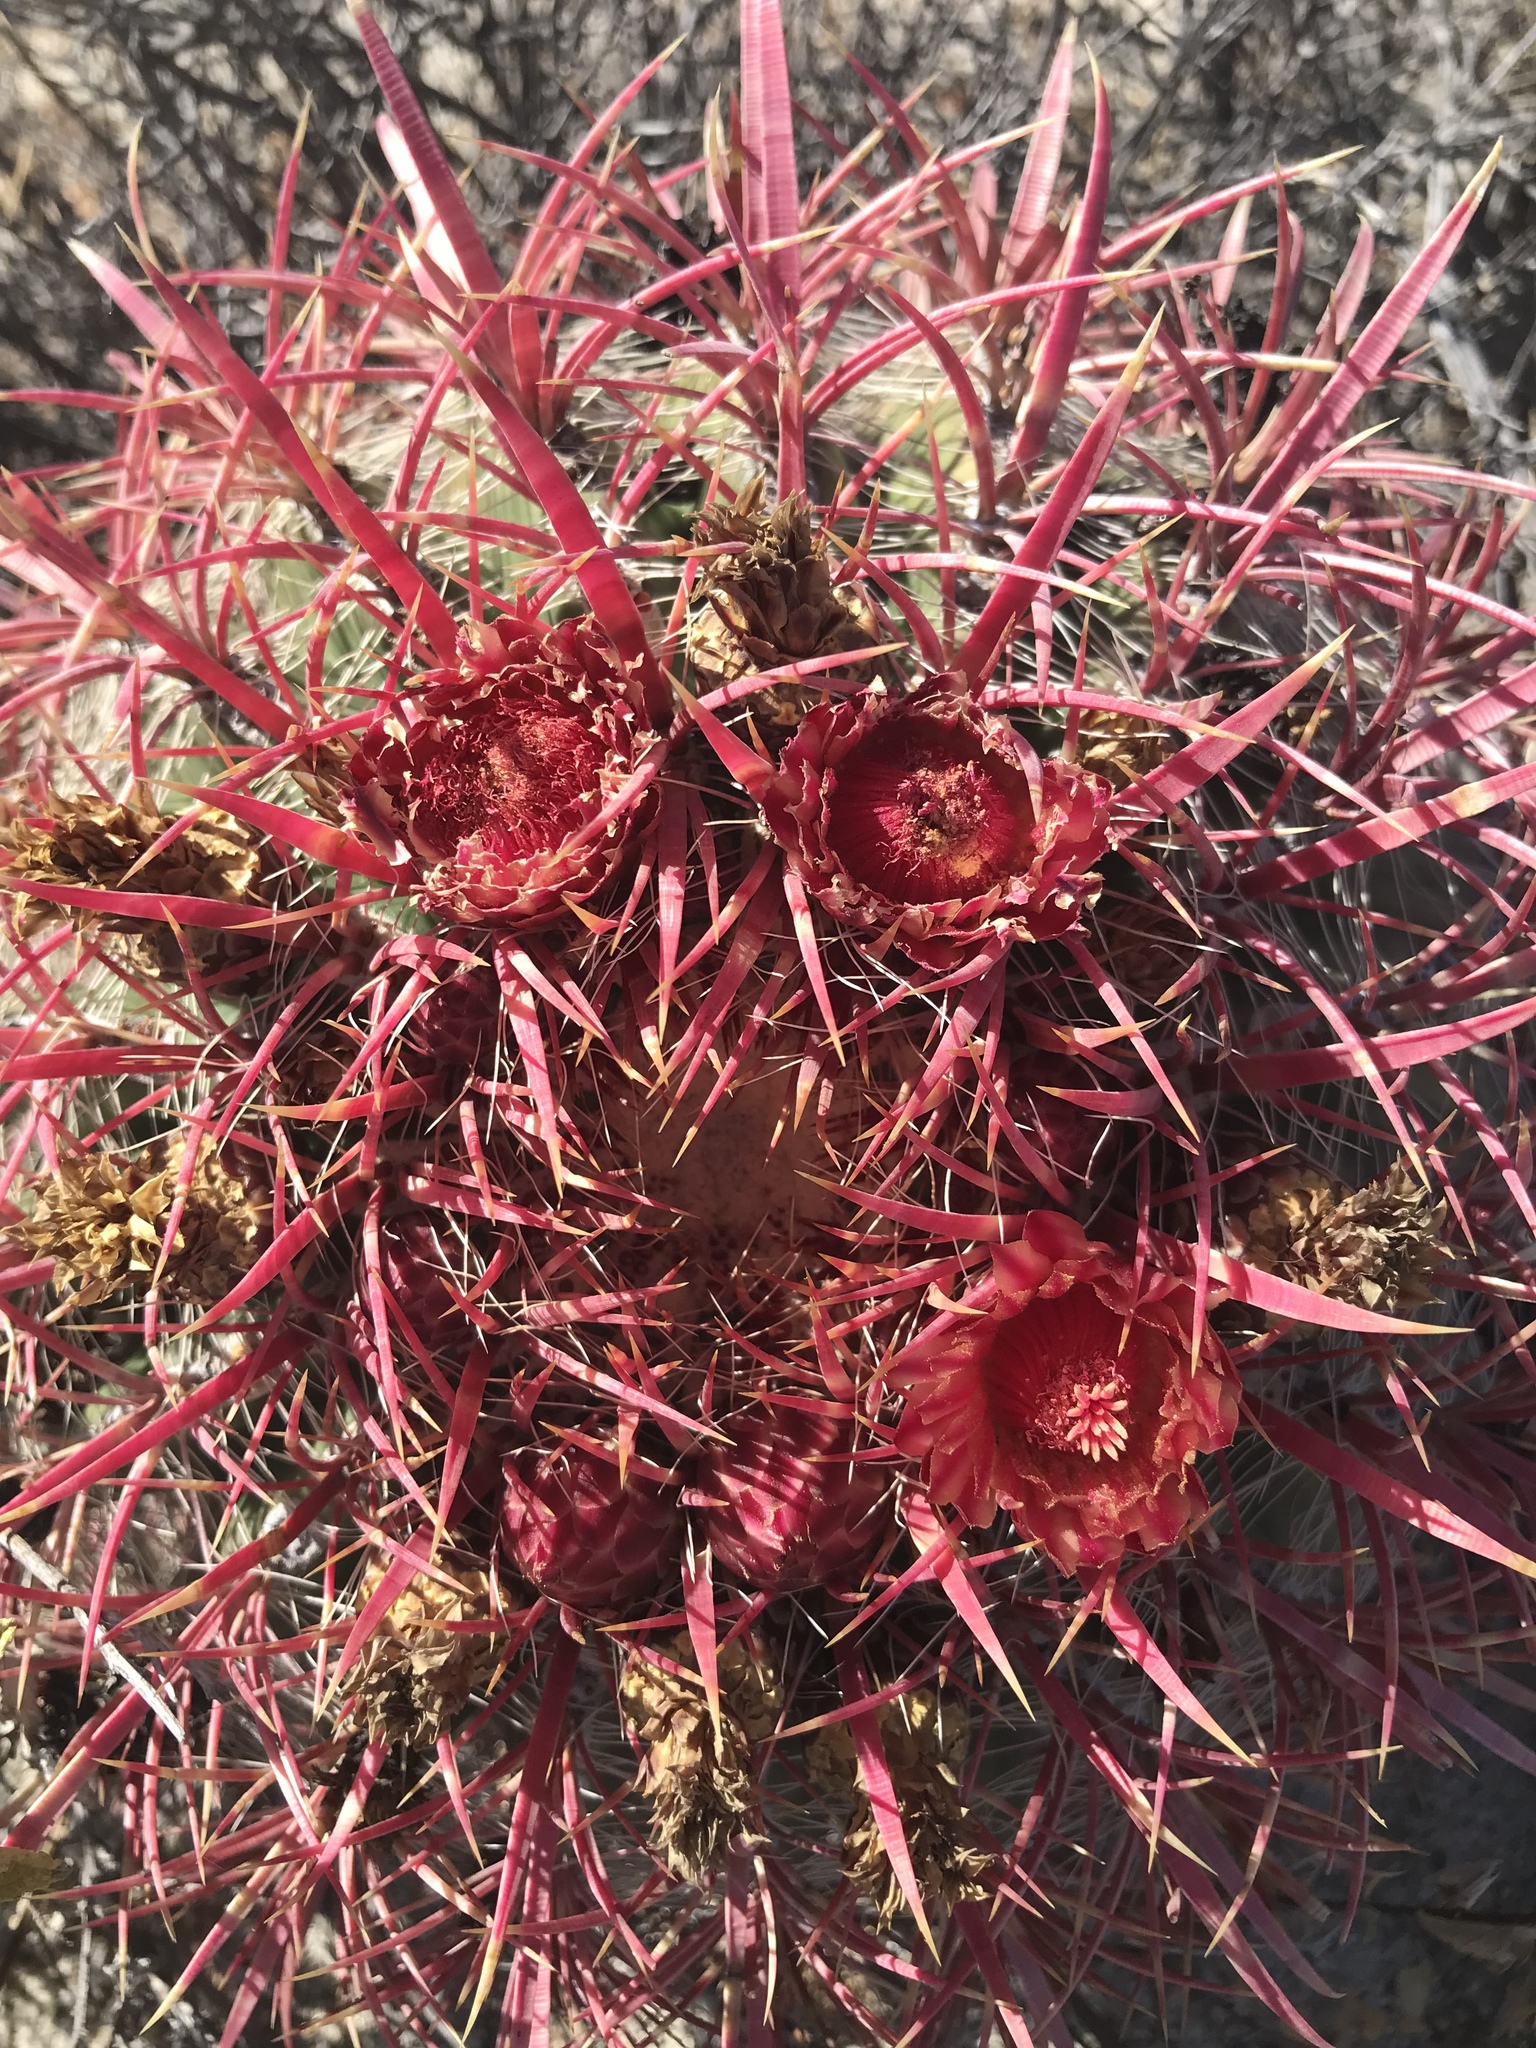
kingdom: Plantae
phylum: Tracheophyta
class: Magnoliopsida
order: Caryophyllales
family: Cactaceae
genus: Ferocactus
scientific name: Ferocactus gracilis
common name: Fire barrel cactus
